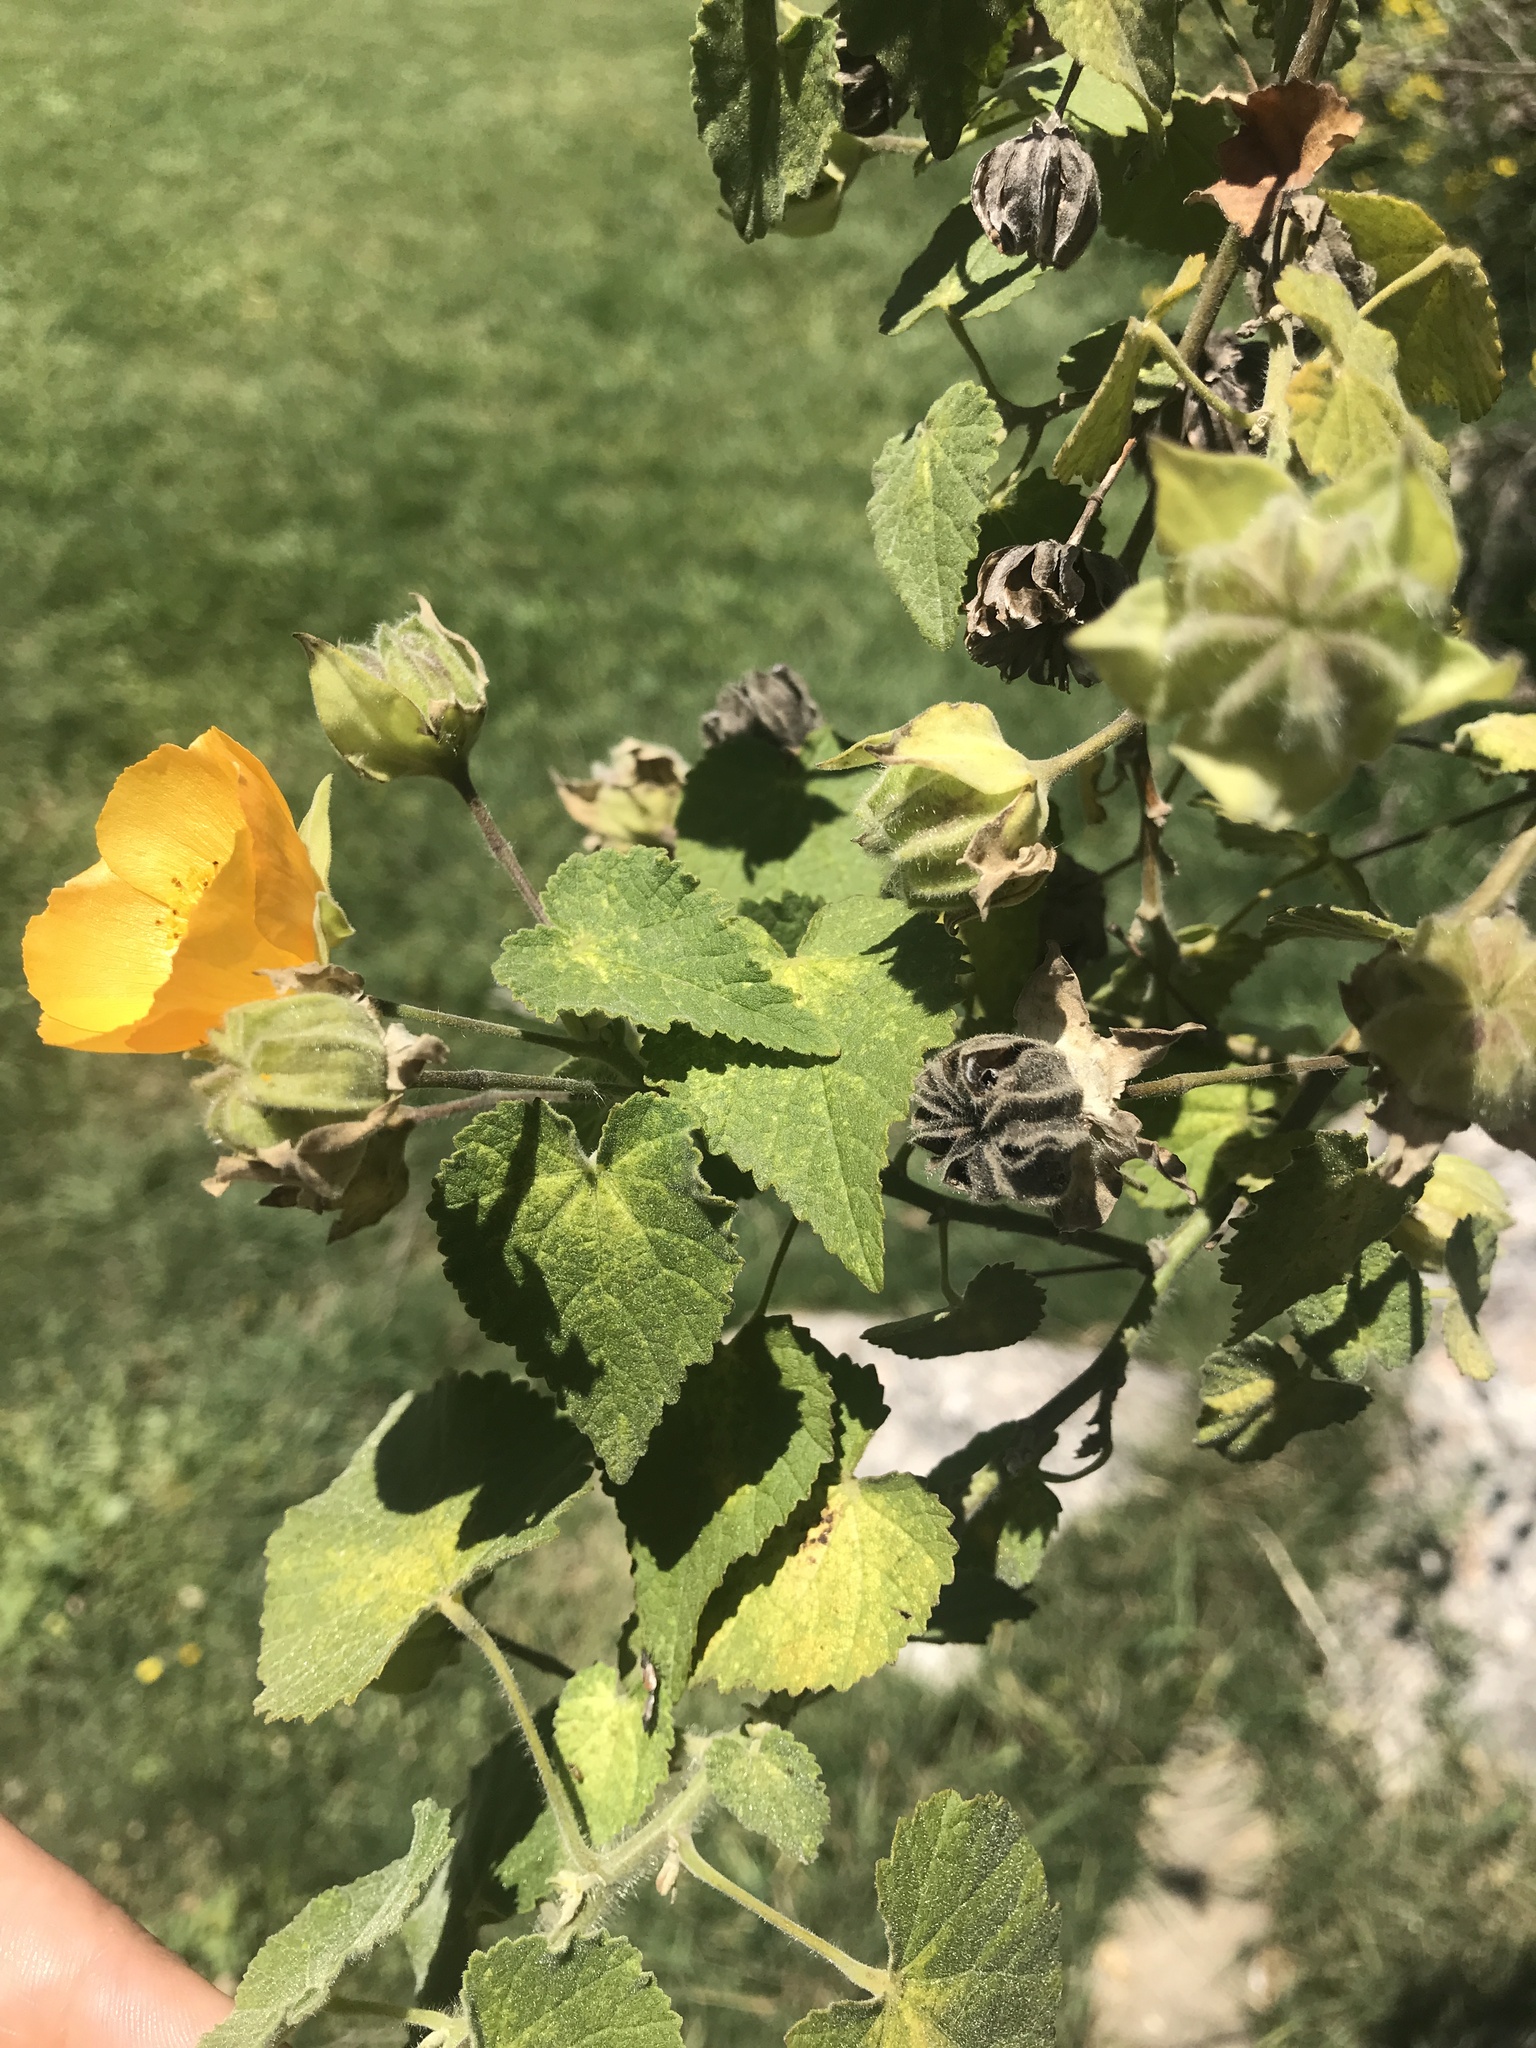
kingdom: Plantae
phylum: Tracheophyta
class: Magnoliopsida
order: Malvales
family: Malvaceae
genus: Abutilon
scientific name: Abutilon grandifolium
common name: Hairy abutilon
